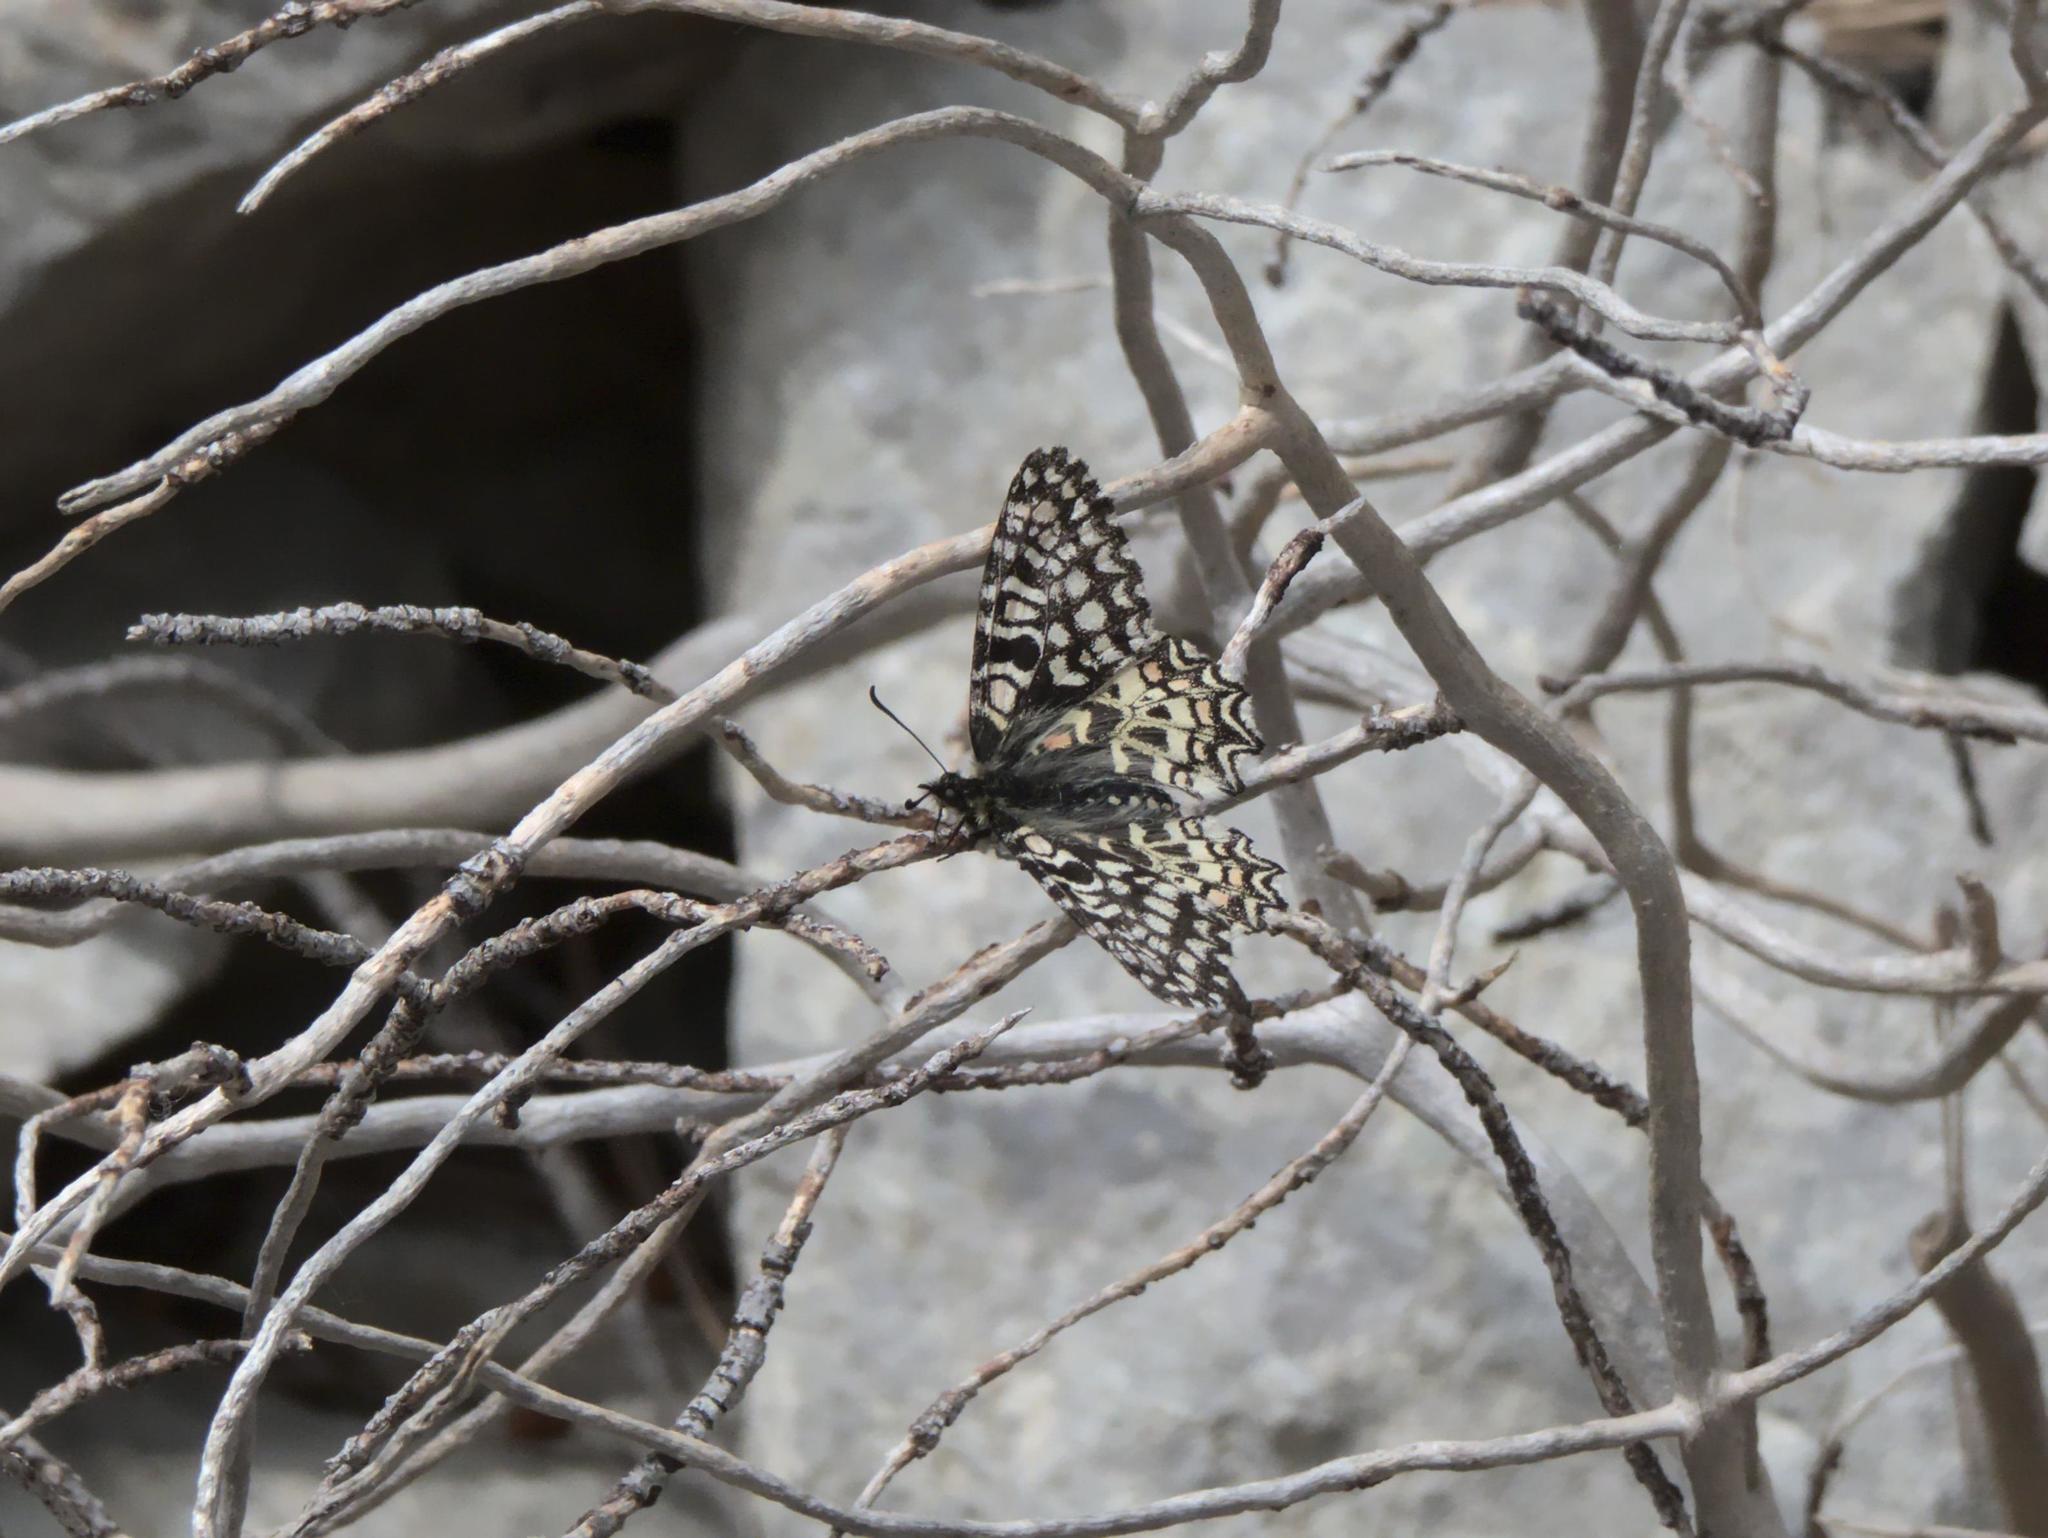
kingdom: Animalia
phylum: Arthropoda
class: Insecta
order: Lepidoptera
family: Papilionidae
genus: Zerynthia
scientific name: Zerynthia rumina
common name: Spanish festoon
